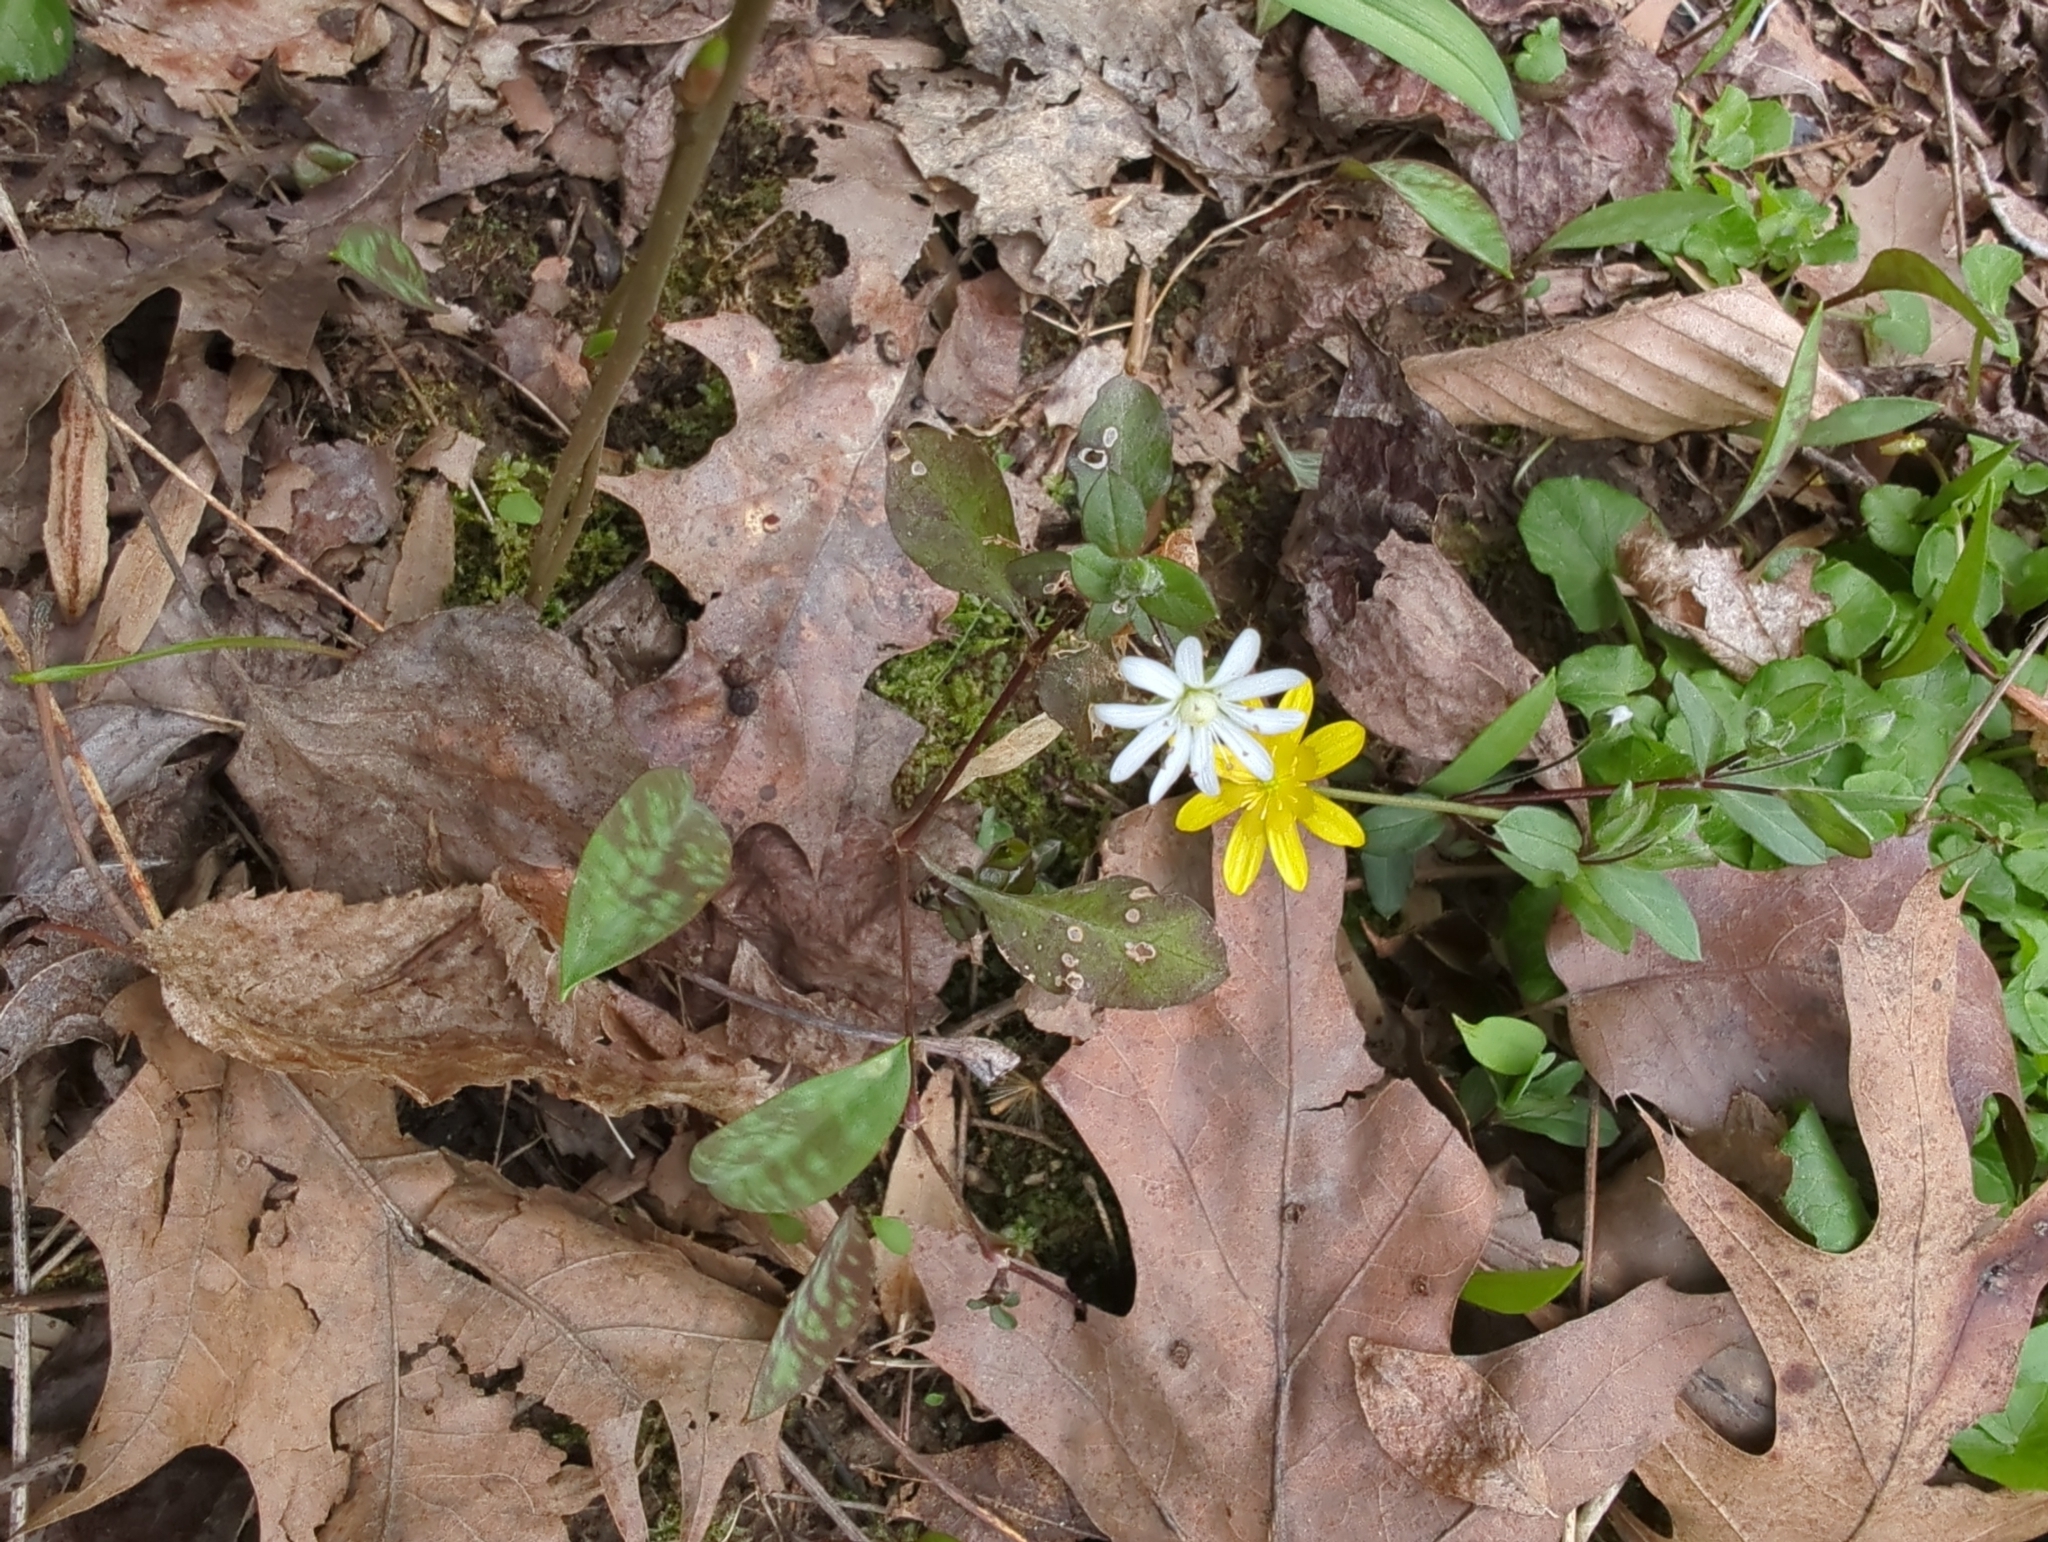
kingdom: Plantae
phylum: Tracheophyta
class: Magnoliopsida
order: Caryophyllales
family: Caryophyllaceae
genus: Stellaria
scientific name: Stellaria pubera
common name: Star chickweed
